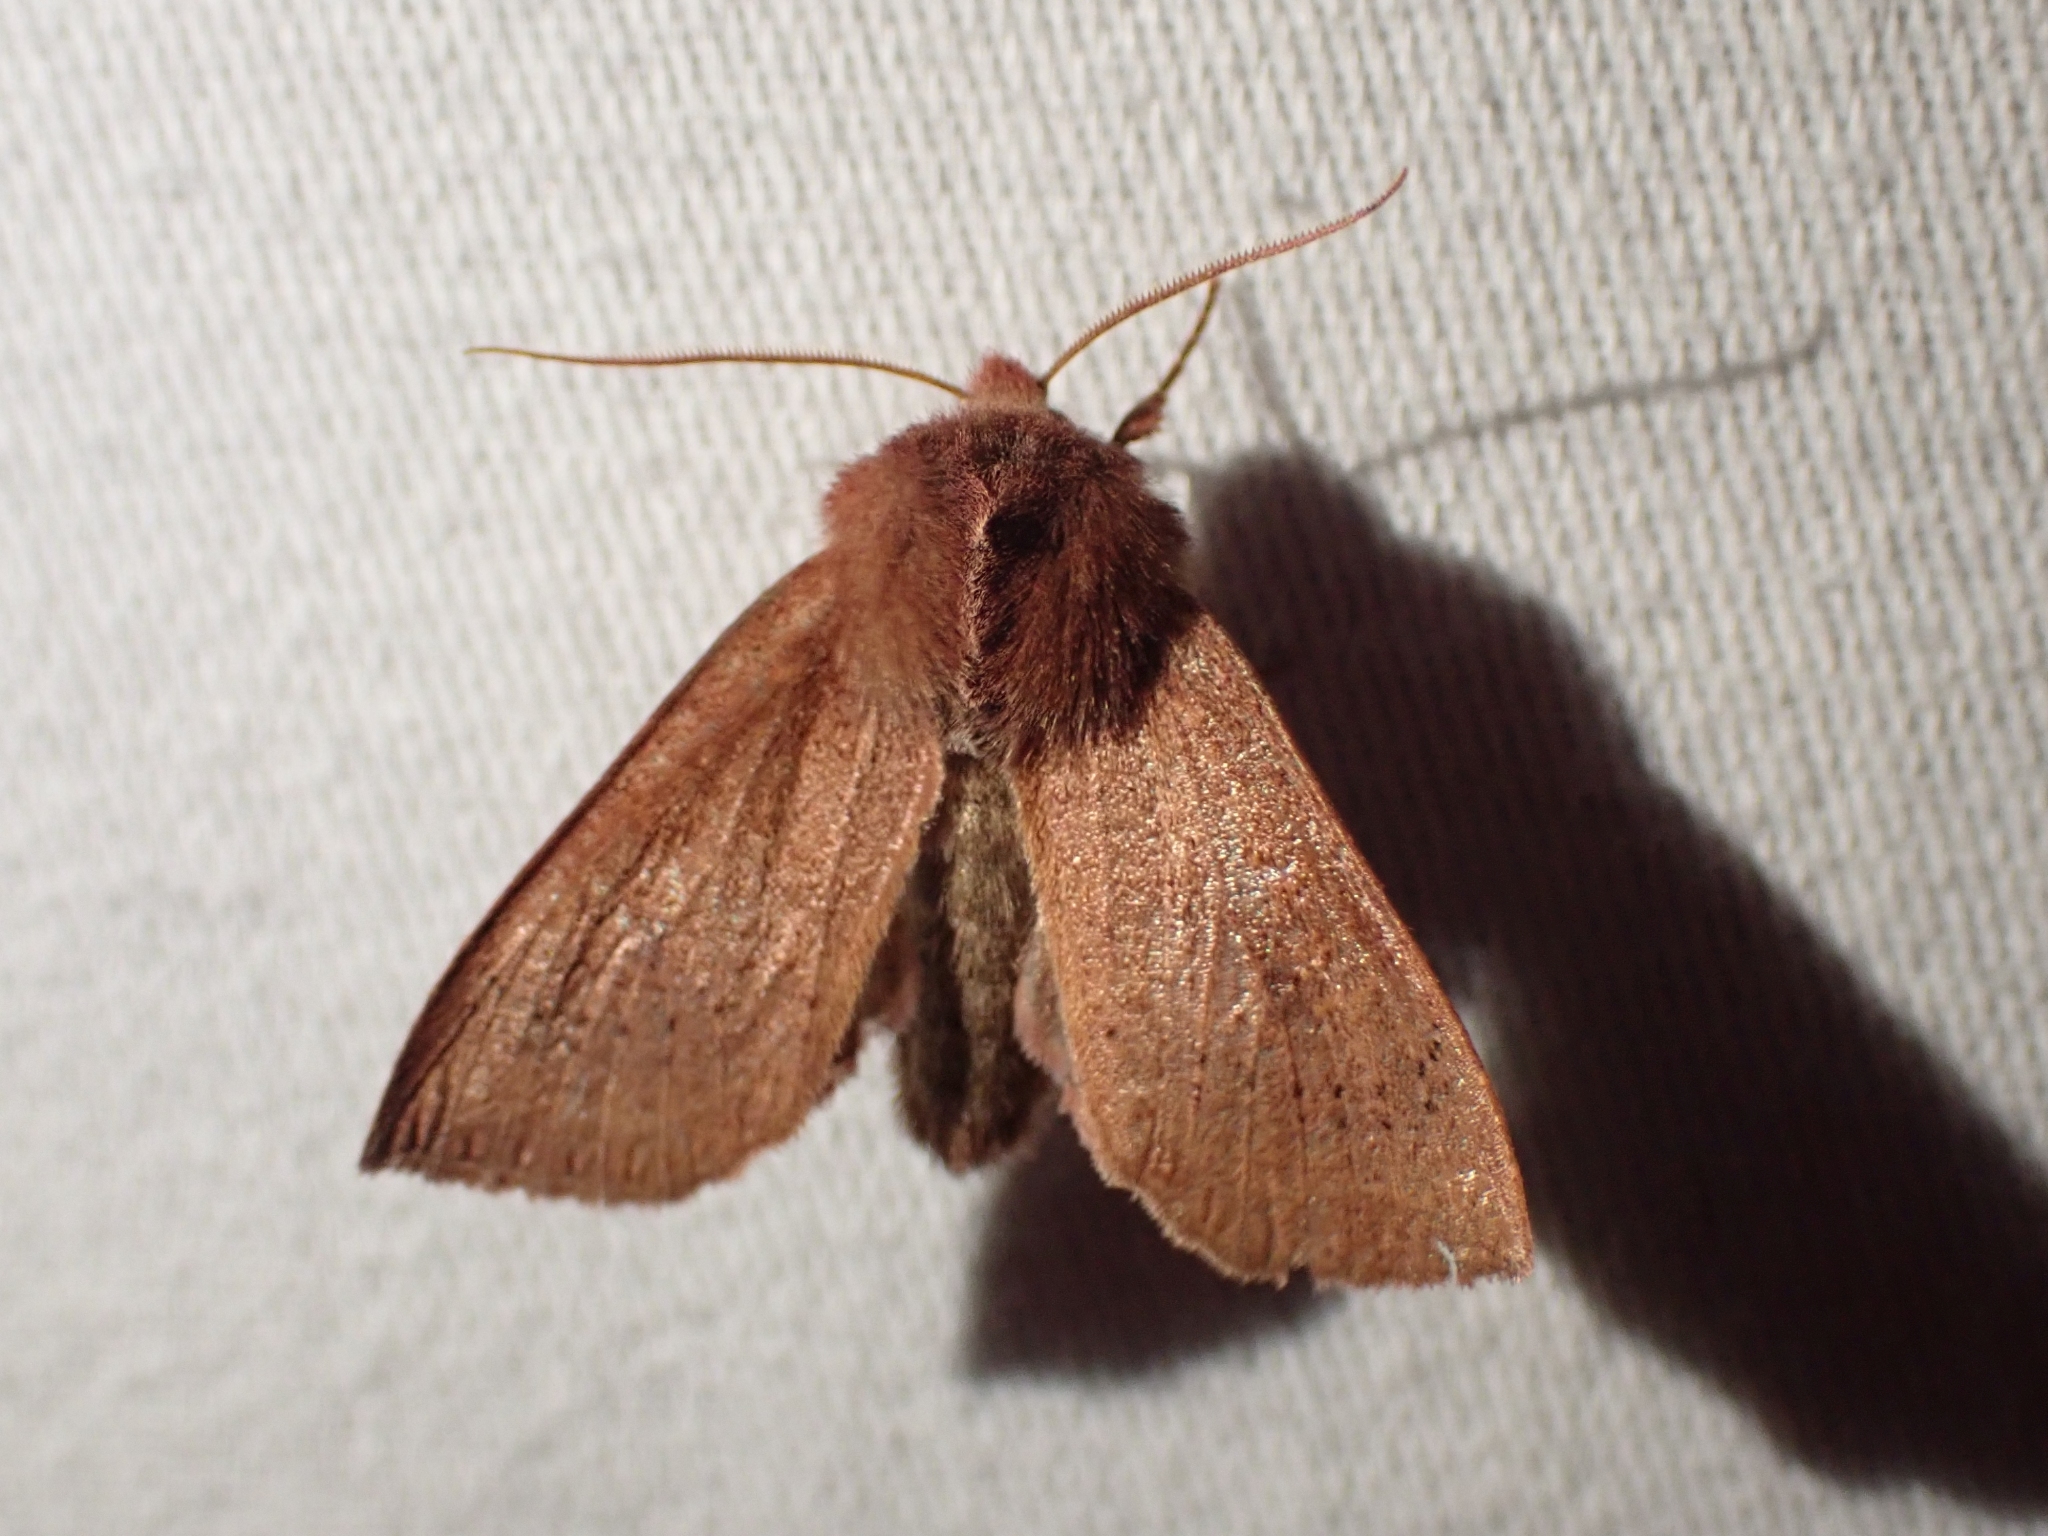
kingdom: Animalia
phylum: Arthropoda
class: Insecta
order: Lepidoptera
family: Noctuidae
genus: Orthosia
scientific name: Orthosia transparens
